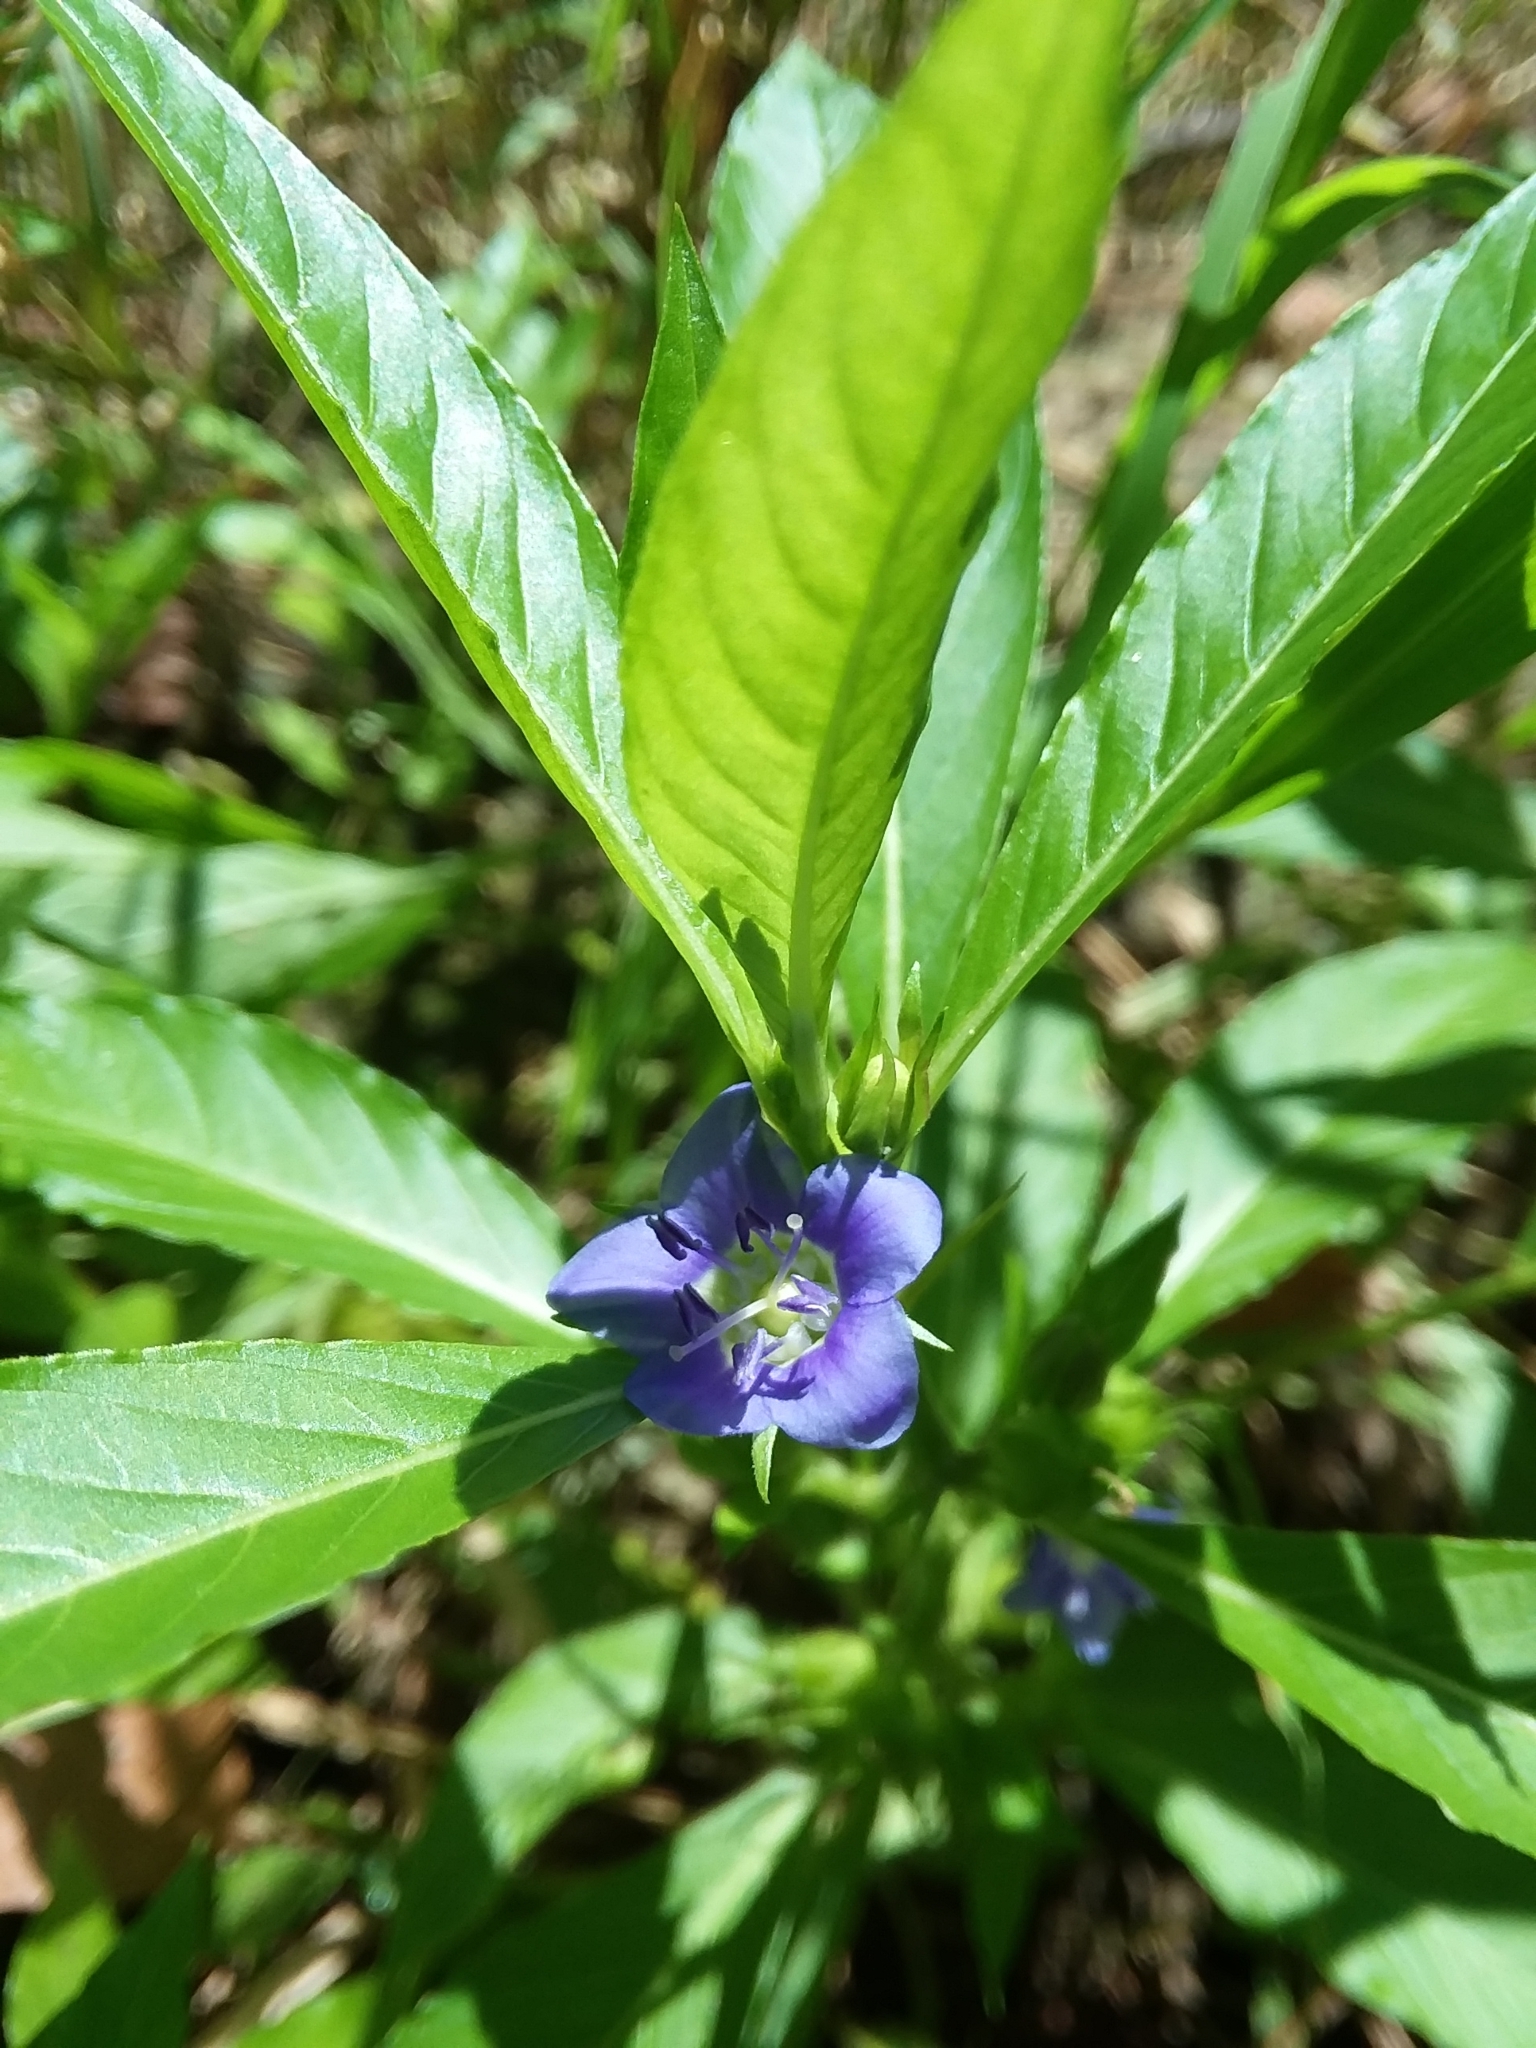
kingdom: Plantae
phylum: Tracheophyta
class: Magnoliopsida
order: Solanales
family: Hydroleaceae
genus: Hydrolea
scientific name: Hydrolea uniflora
